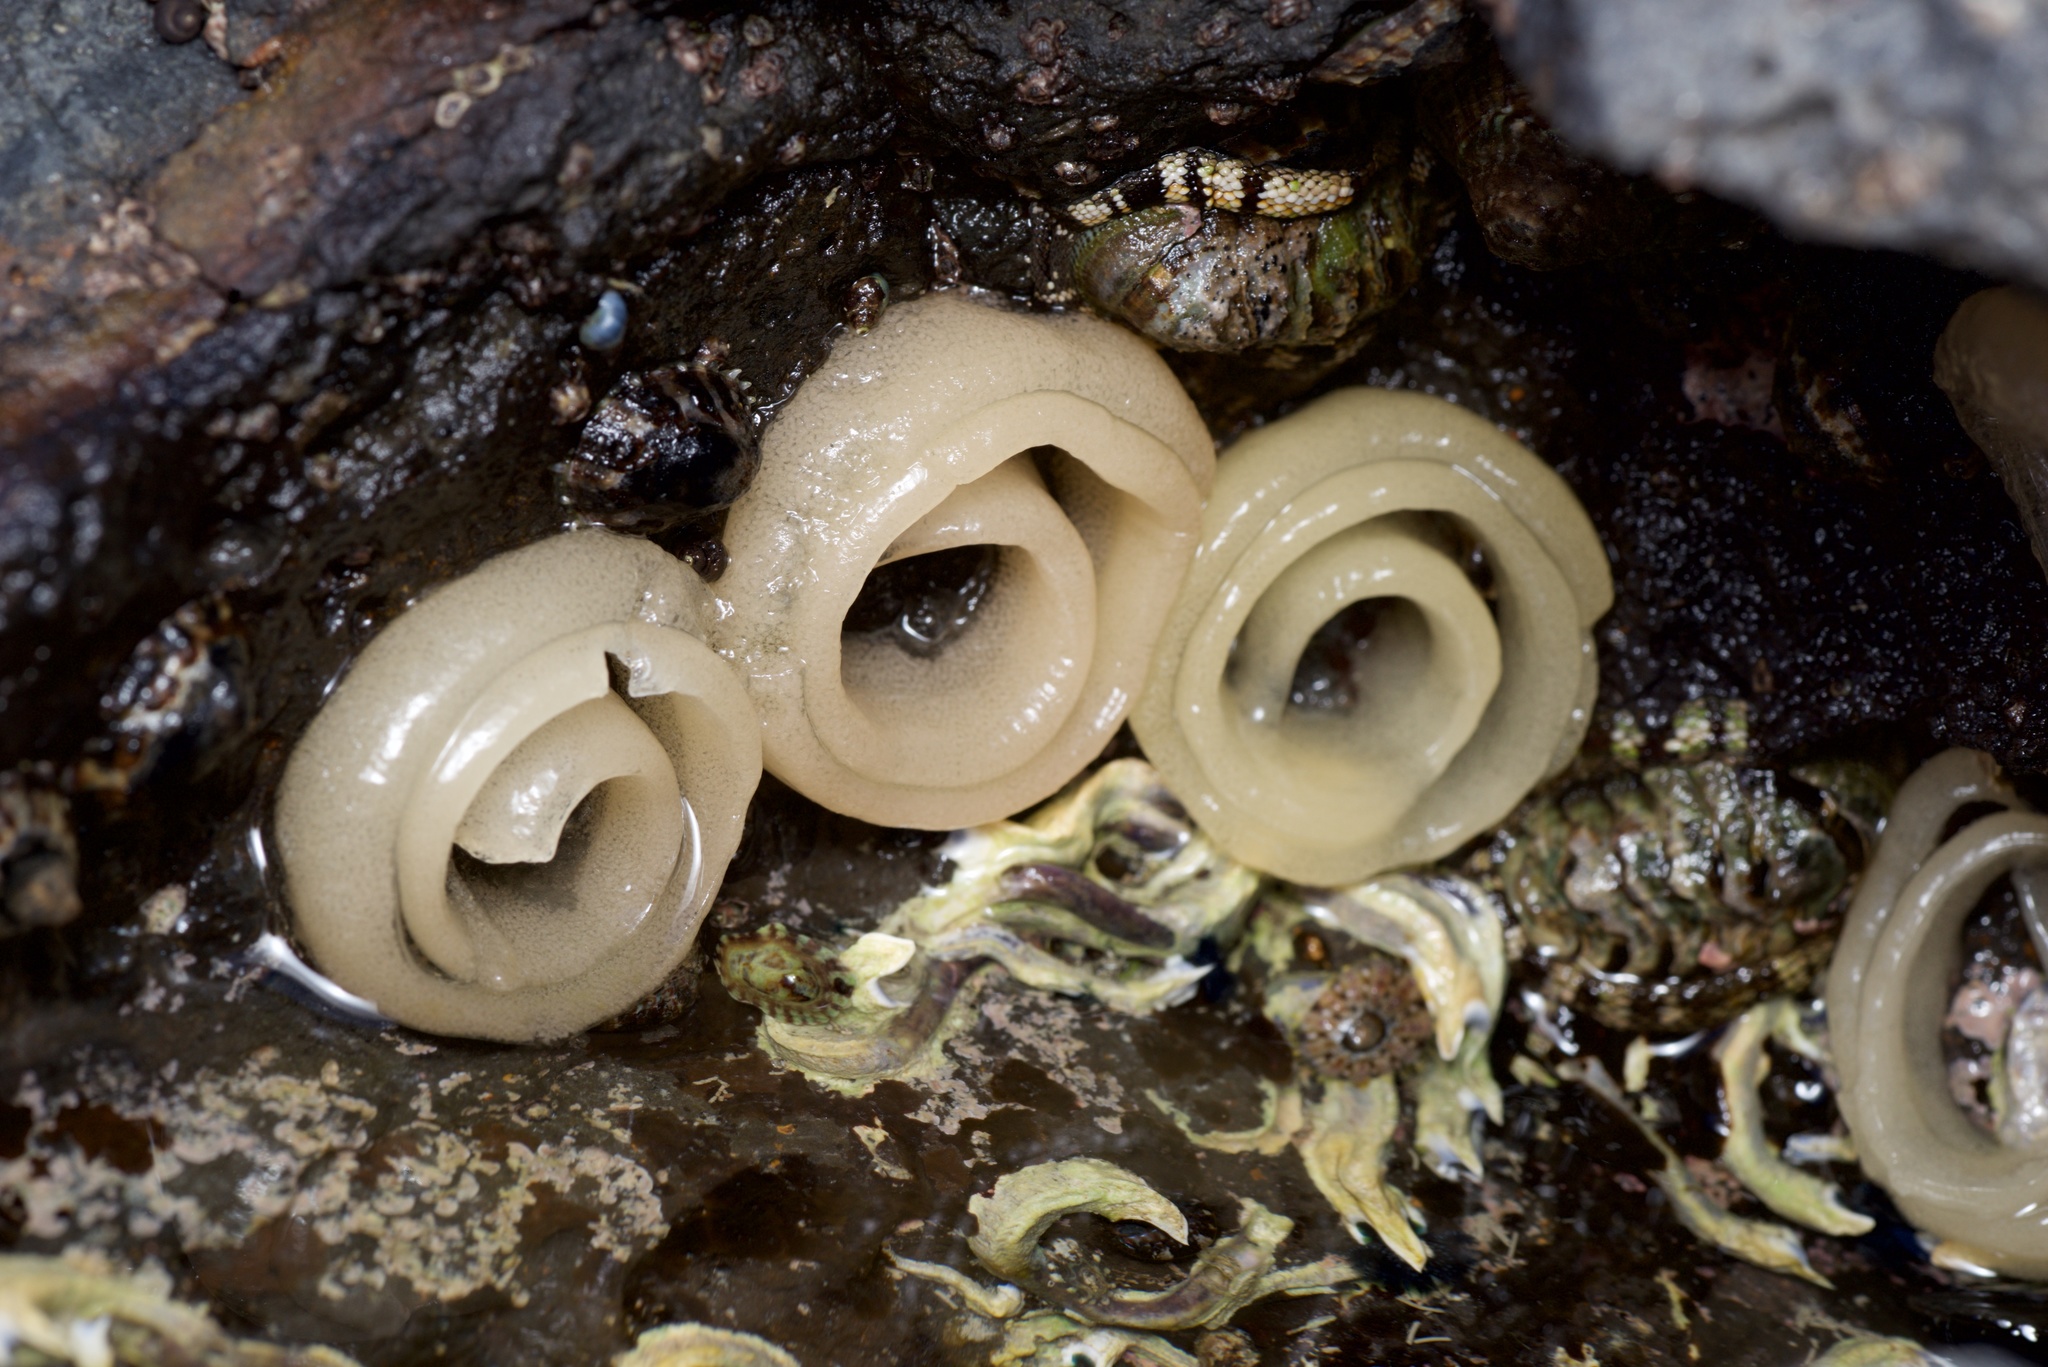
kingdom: Animalia
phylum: Mollusca
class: Gastropoda
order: Siphonariida
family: Siphonariidae
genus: Benhamina
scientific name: Benhamina obliquata
